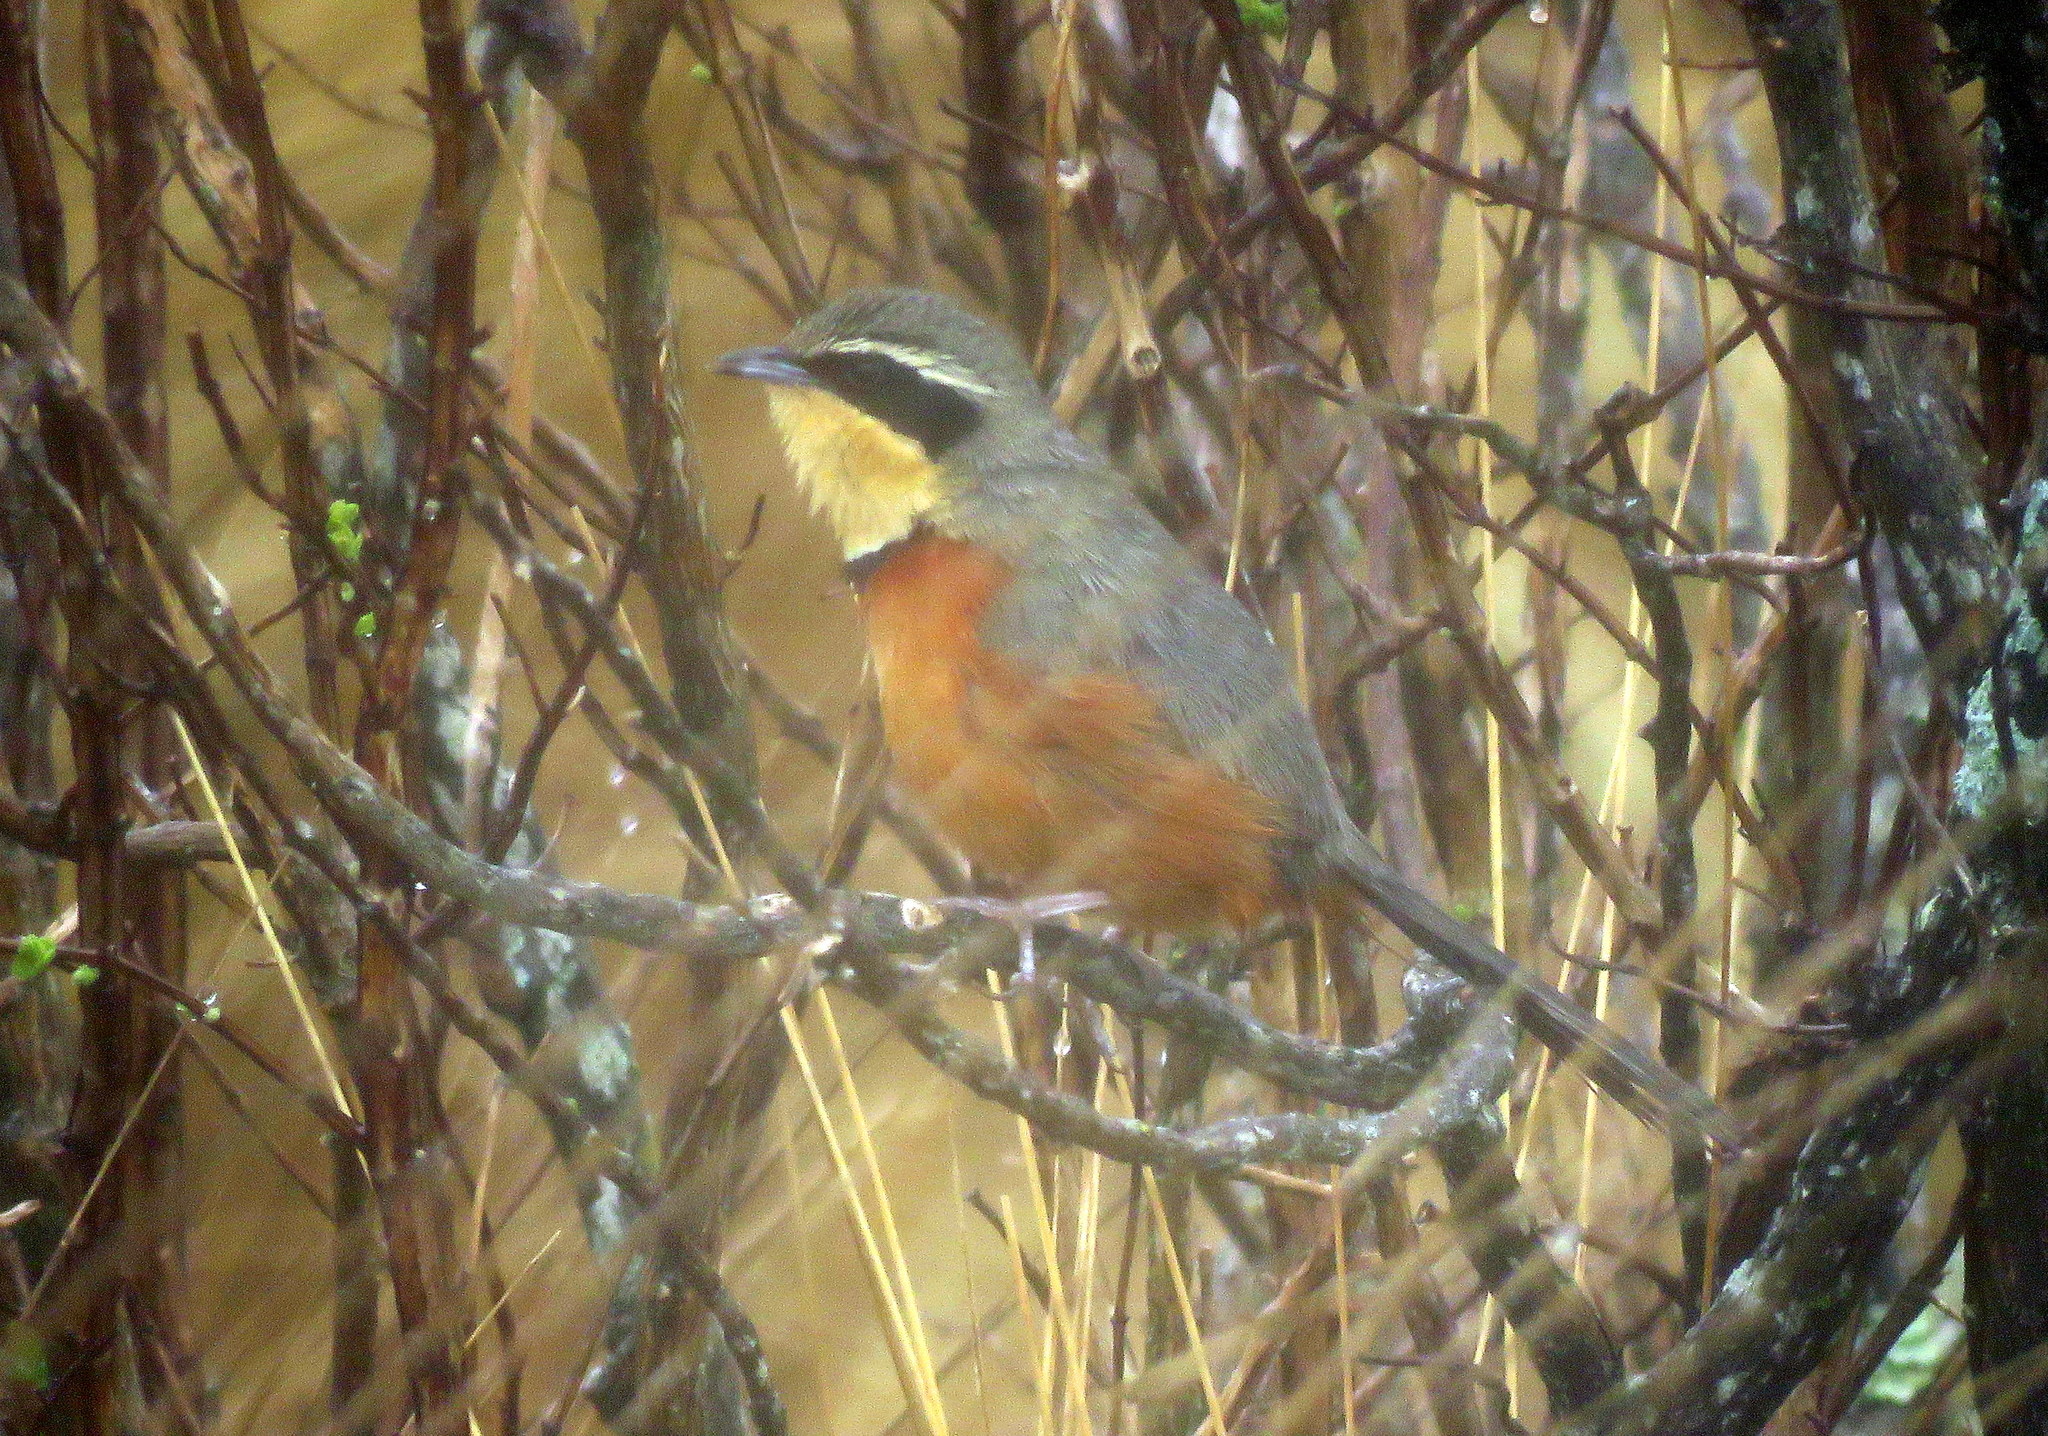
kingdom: Animalia
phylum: Chordata
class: Aves
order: Passeriformes
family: Melanopareiidae
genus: Melanopareia
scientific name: Melanopareia maximiliani
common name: Olive-crowned crescentchest
